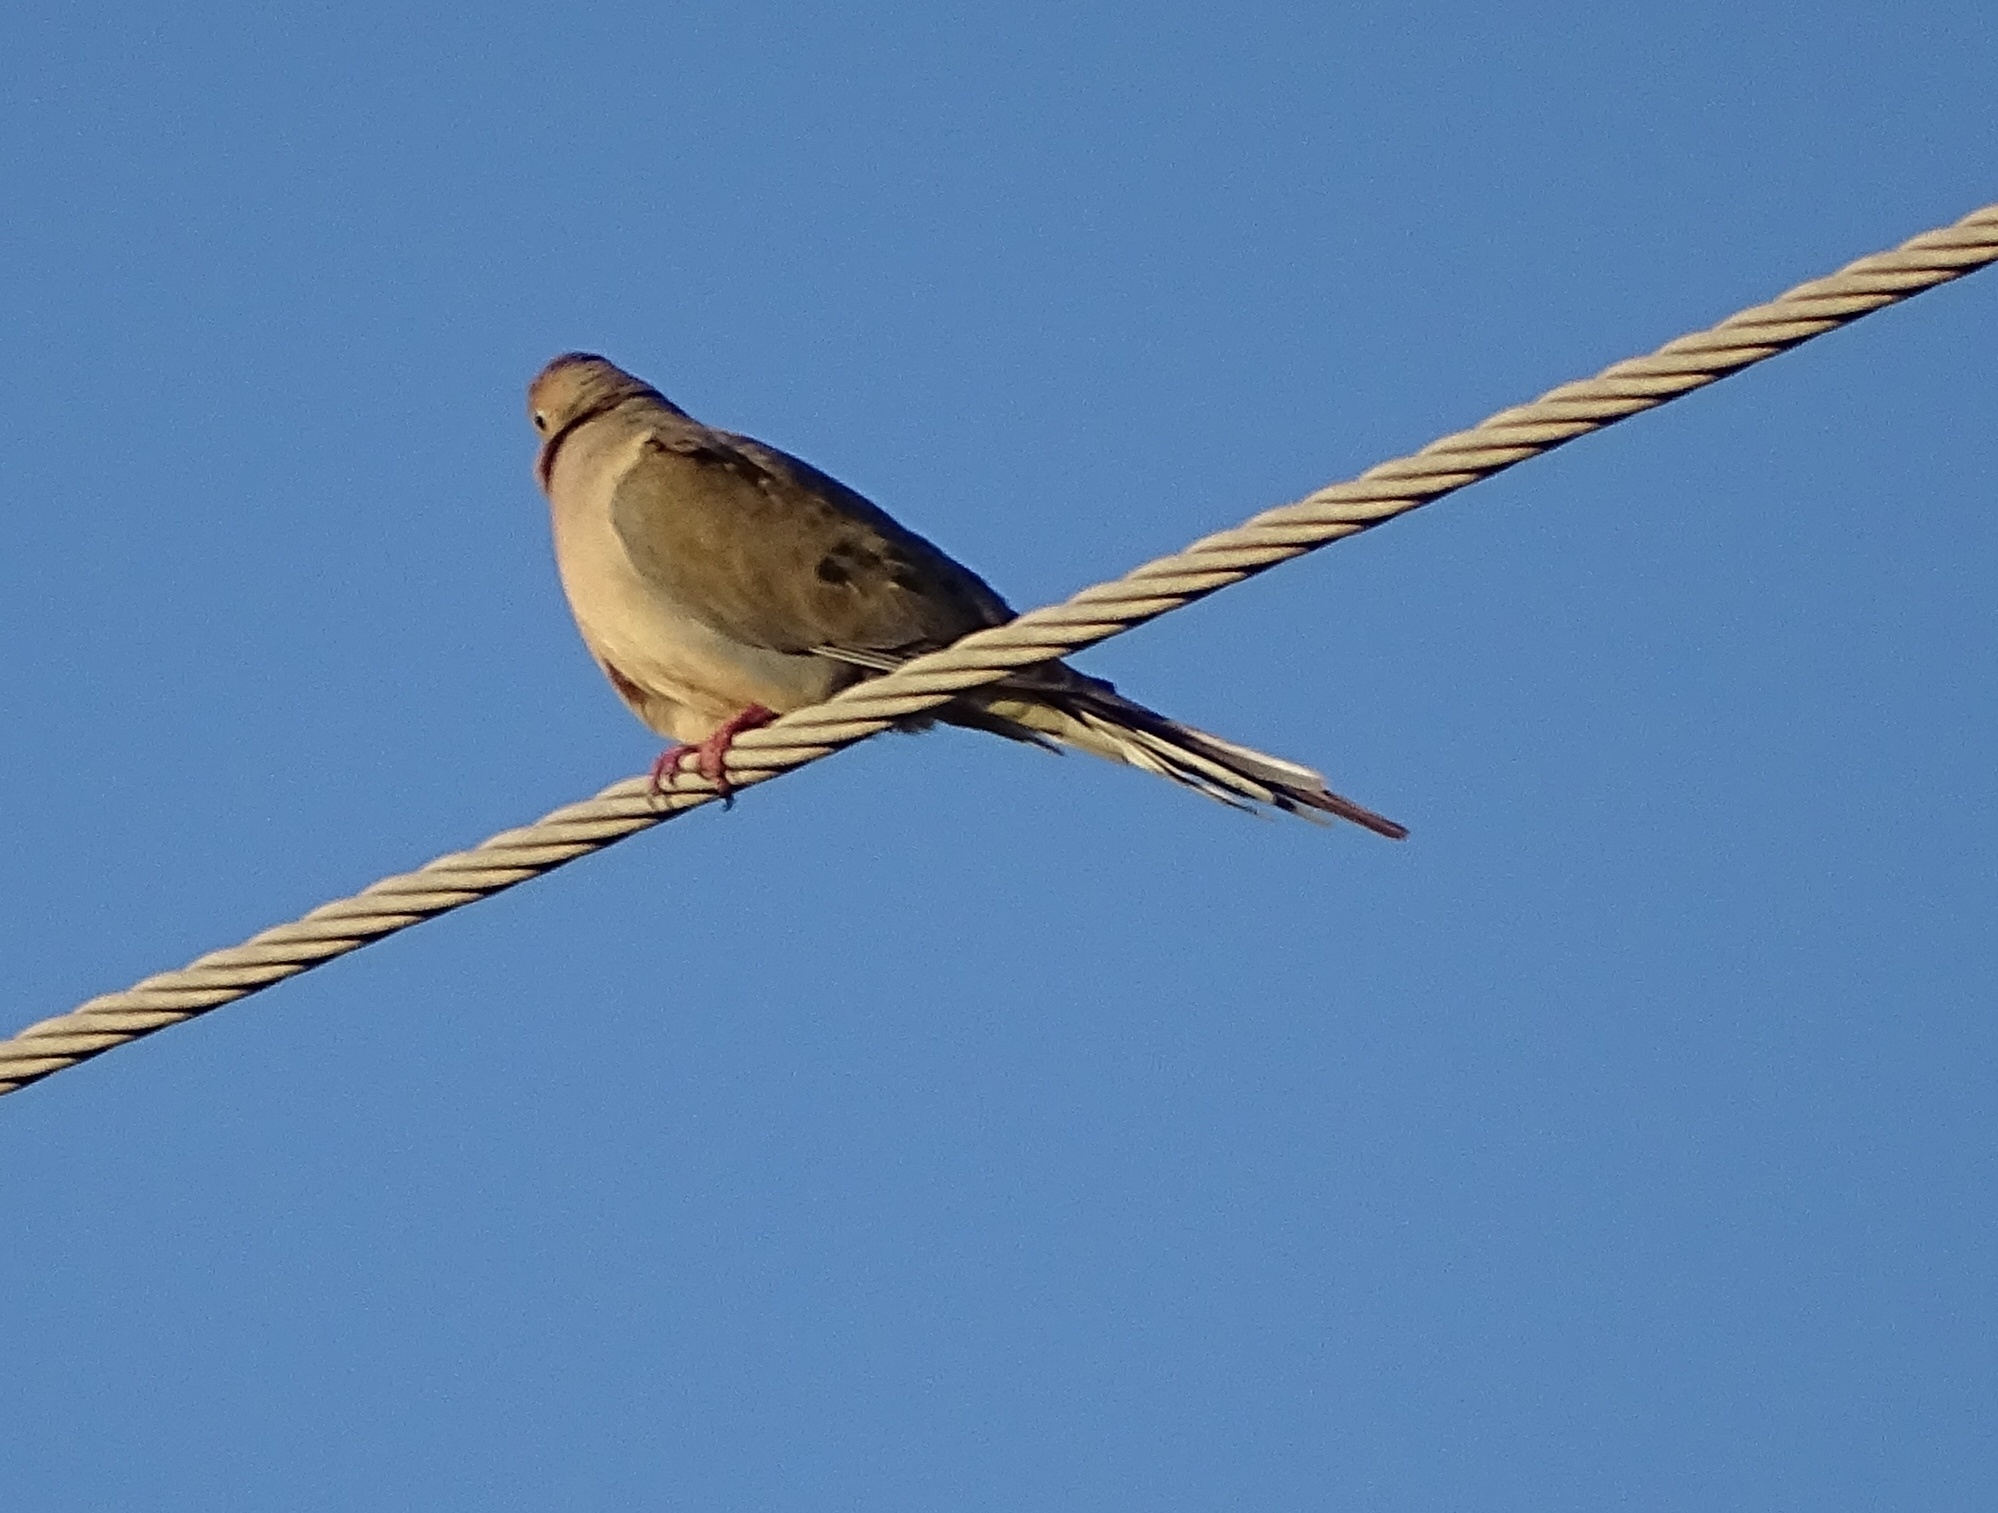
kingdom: Animalia
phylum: Chordata
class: Aves
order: Columbiformes
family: Columbidae
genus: Zenaida
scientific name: Zenaida macroura
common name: Mourning dove
